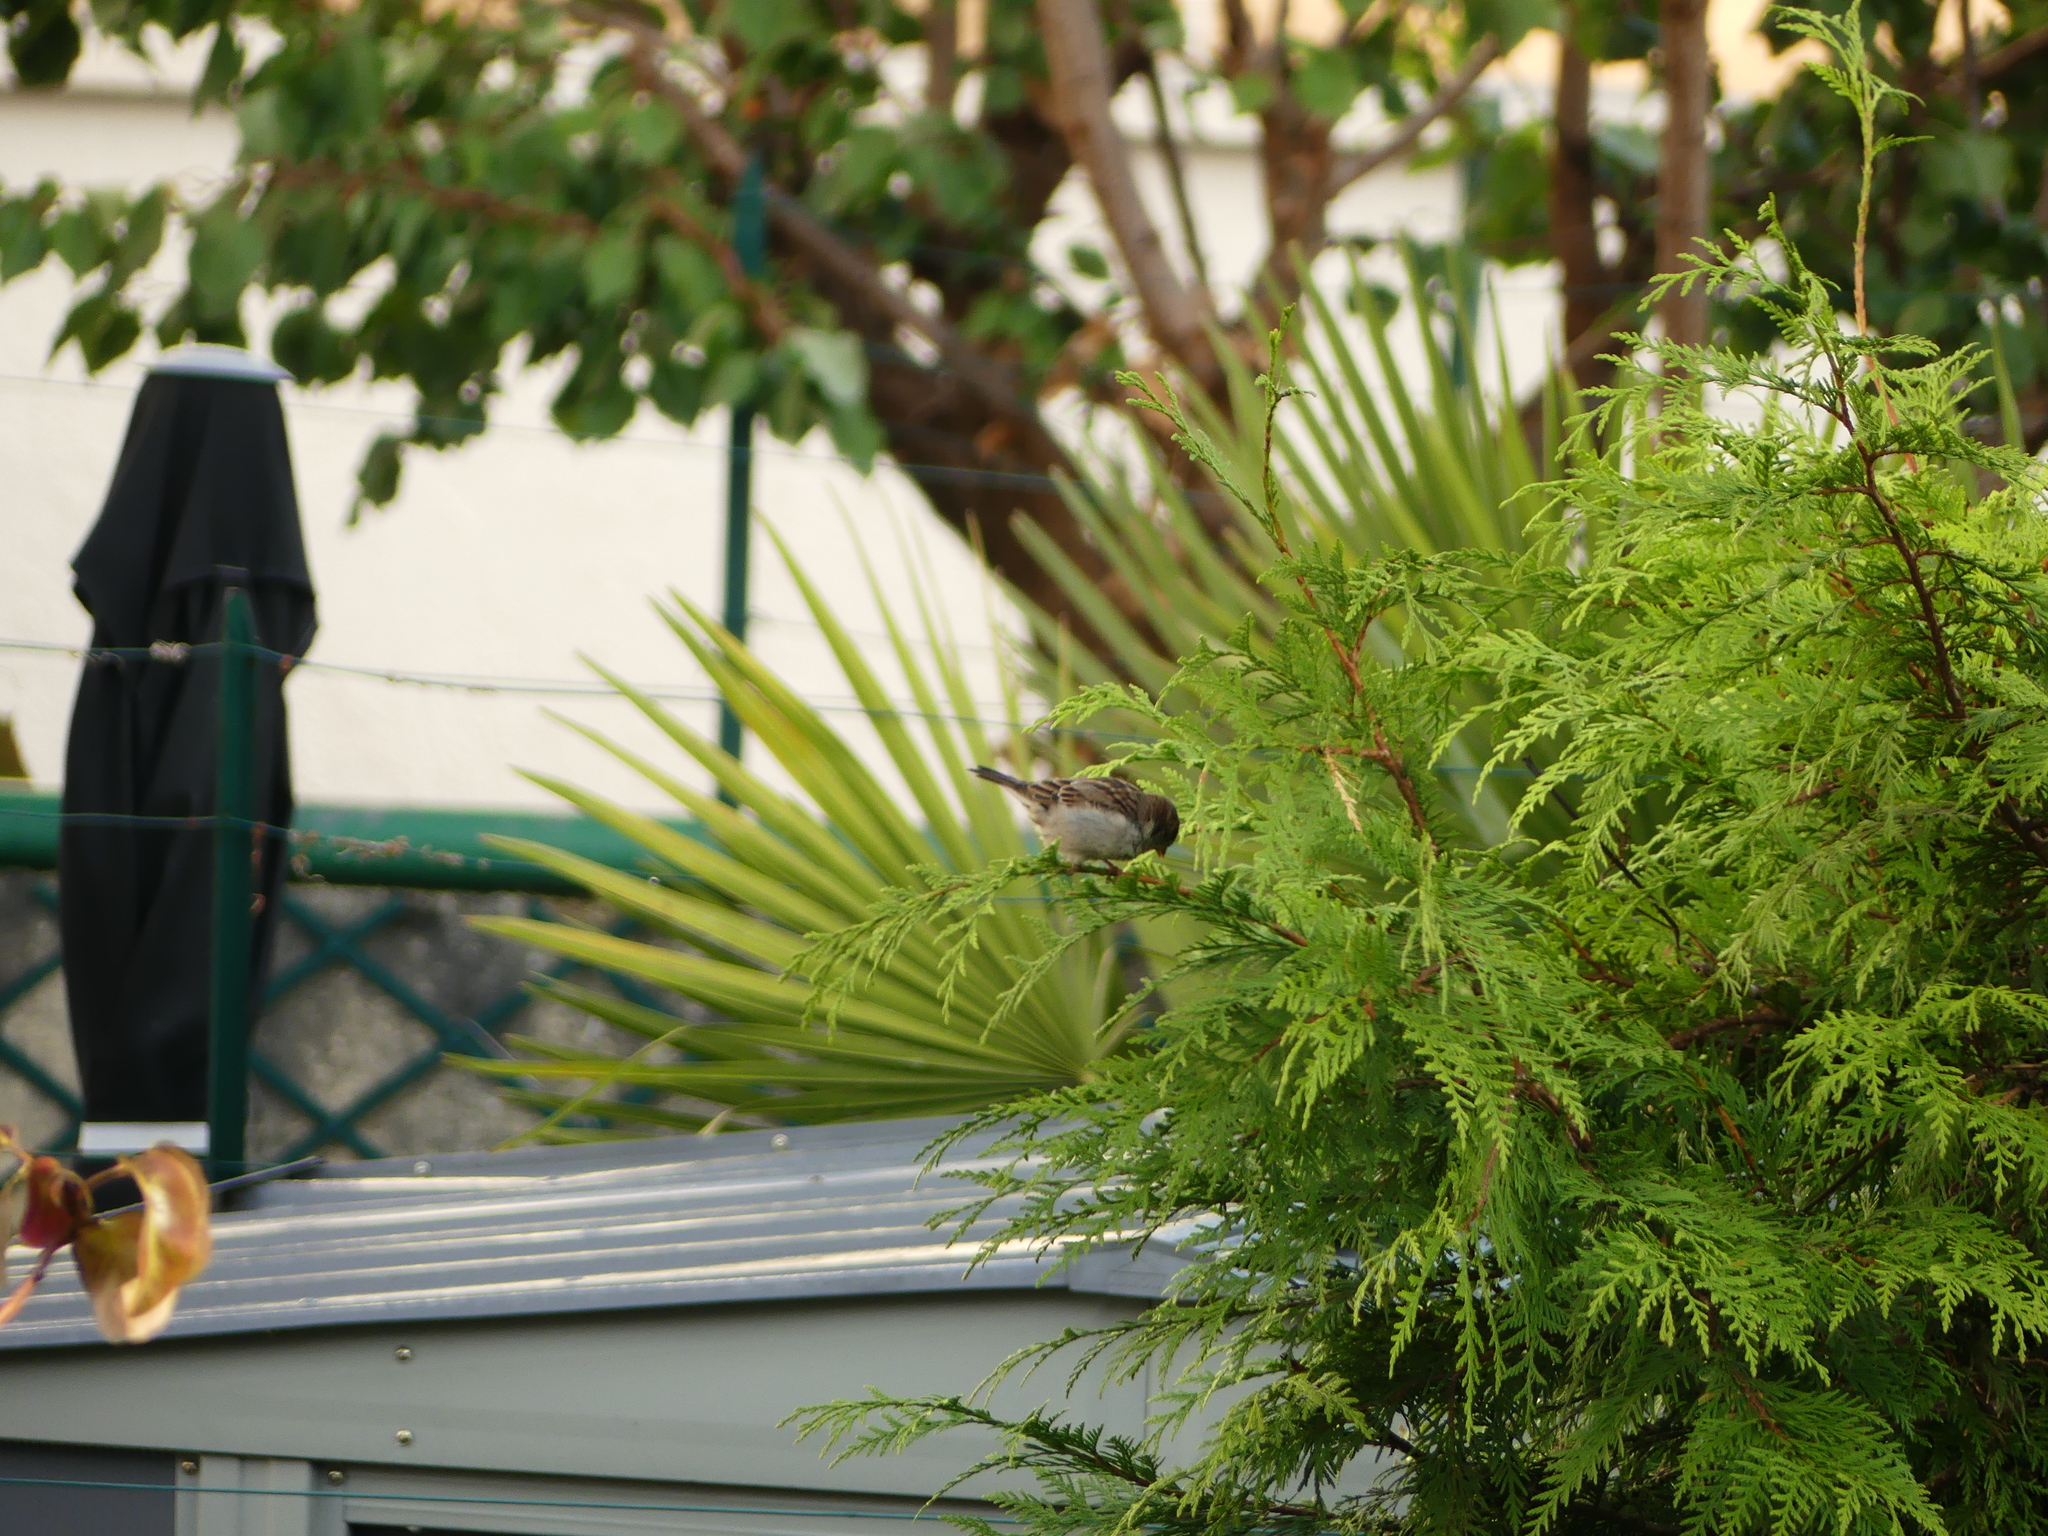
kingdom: Animalia
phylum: Chordata
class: Aves
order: Passeriformes
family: Passeridae
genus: Passer
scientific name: Passer domesticus
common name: House sparrow
